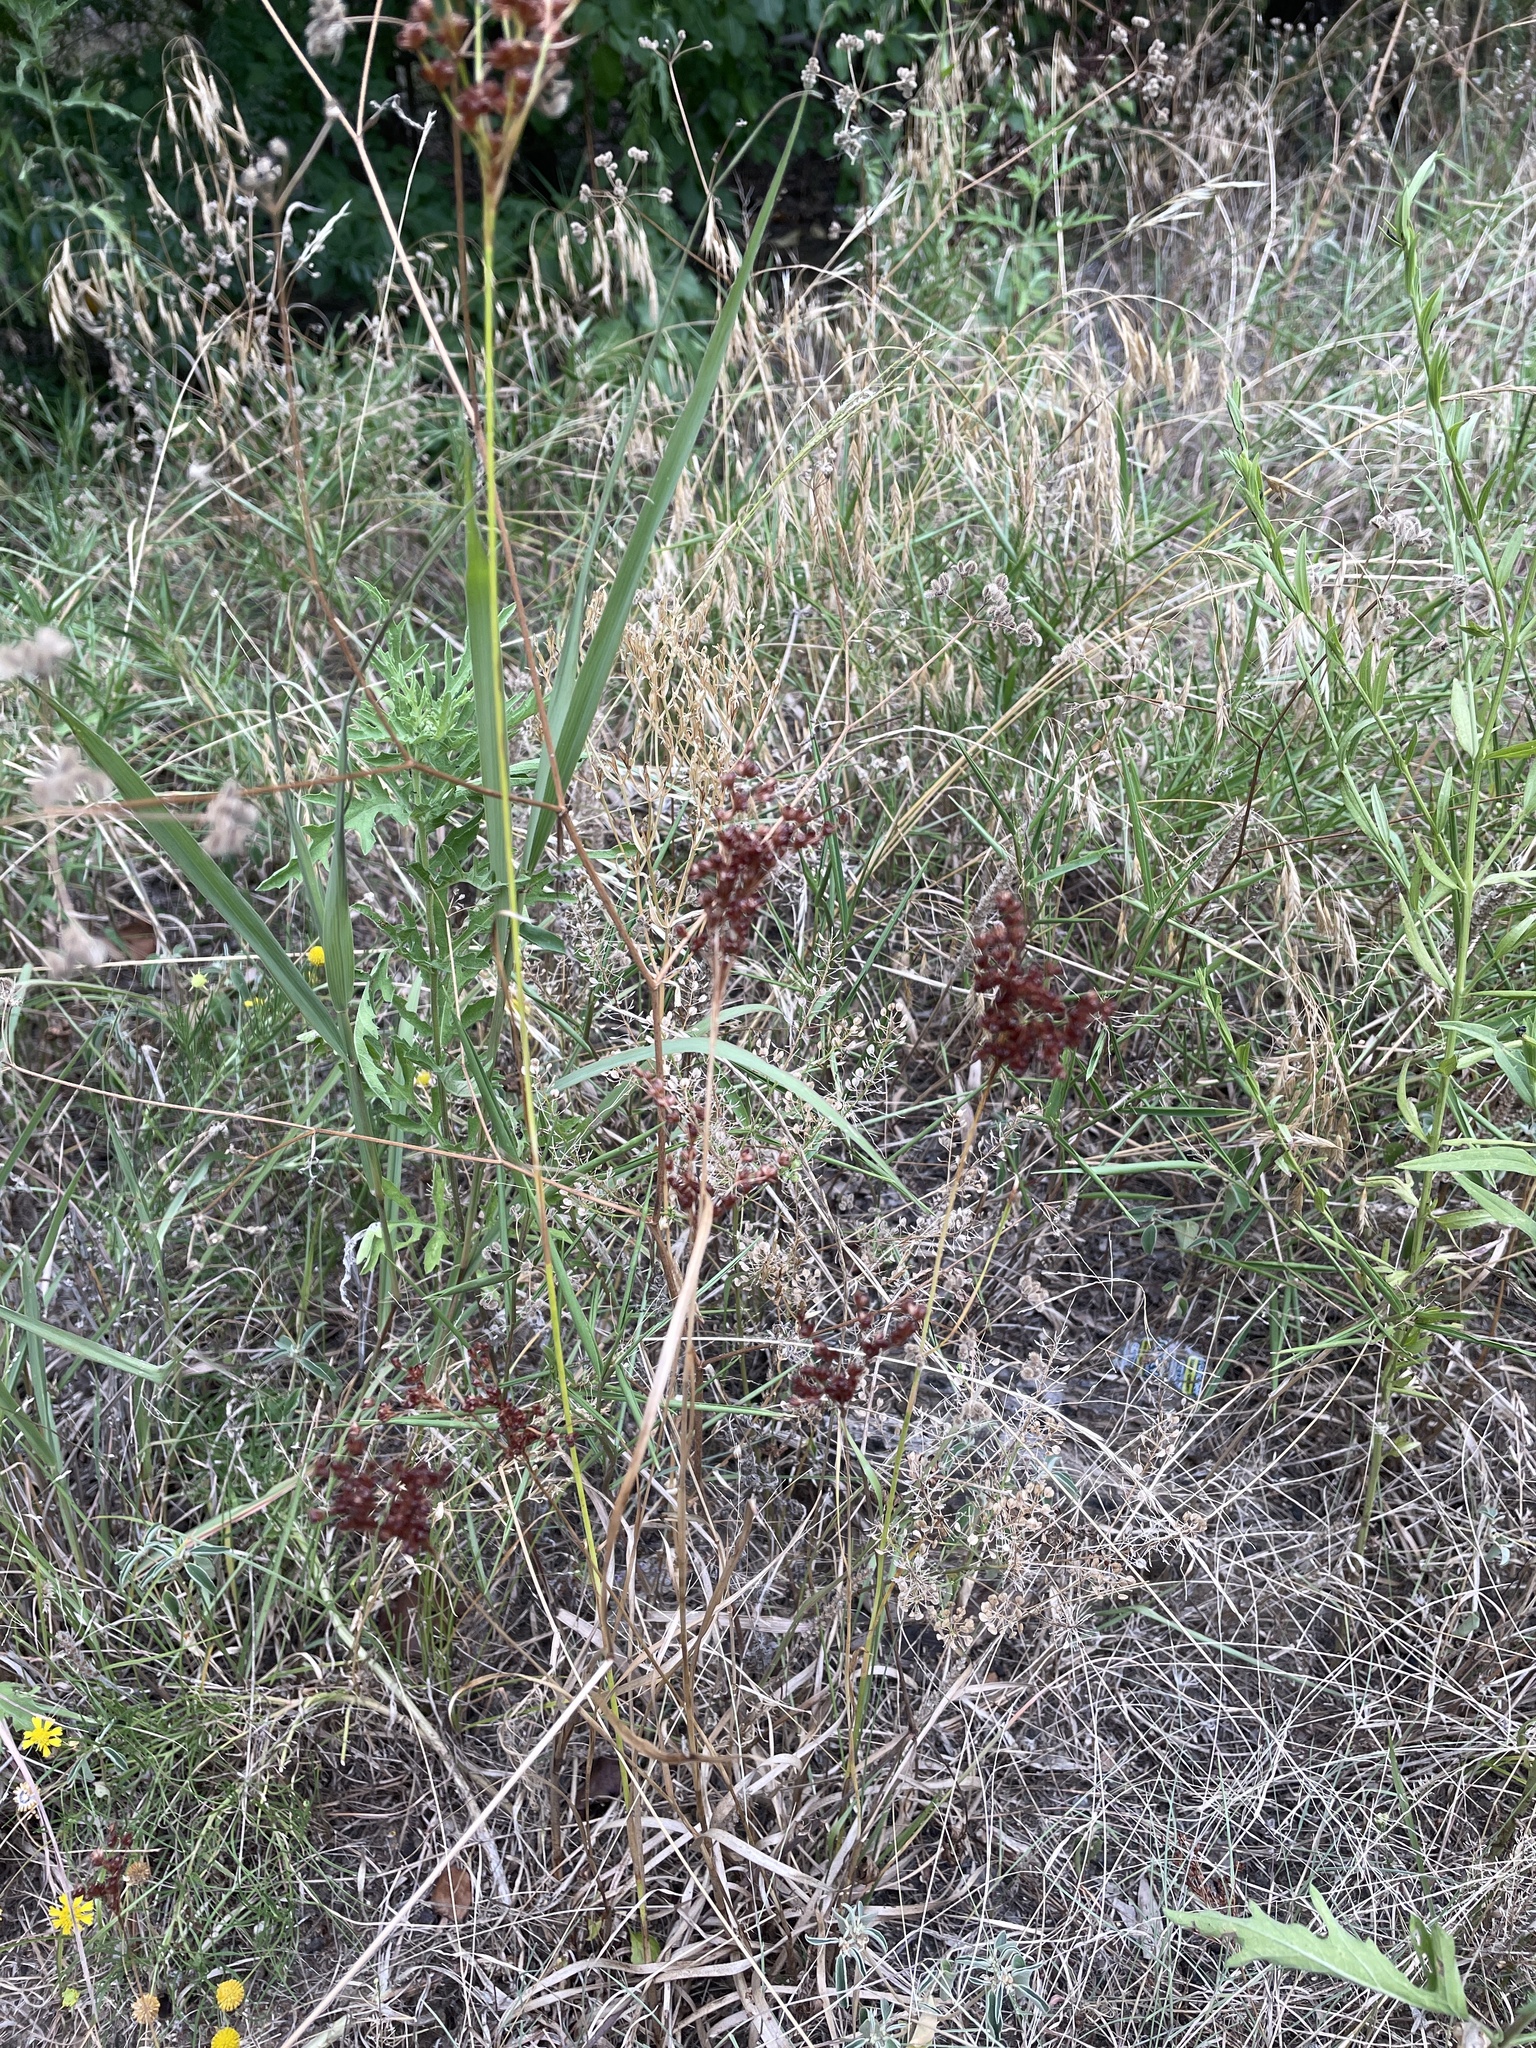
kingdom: Plantae
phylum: Tracheophyta
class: Liliopsida
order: Poales
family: Juncaceae
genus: Juncus
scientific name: Juncus marginatus
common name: Grass-leaf rush
